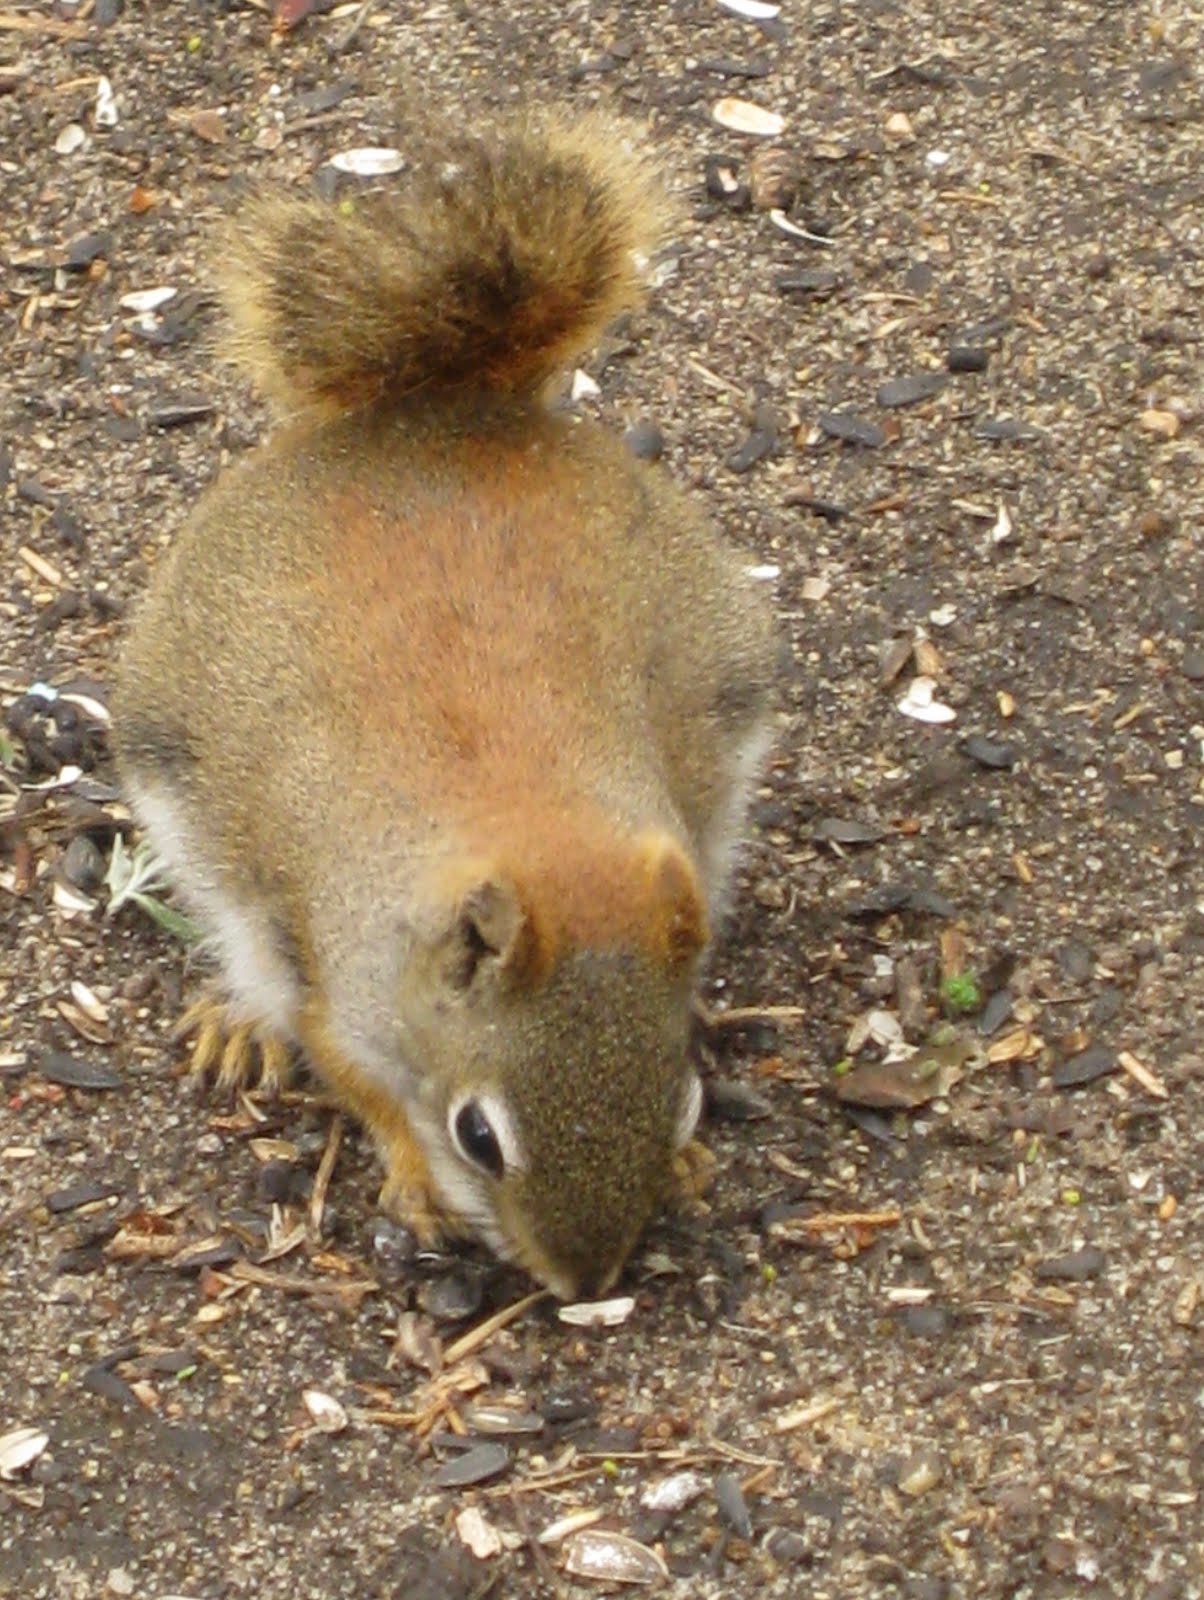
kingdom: Animalia
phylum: Chordata
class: Mammalia
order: Rodentia
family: Sciuridae
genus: Tamiasciurus
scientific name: Tamiasciurus hudsonicus
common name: Red squirrel
